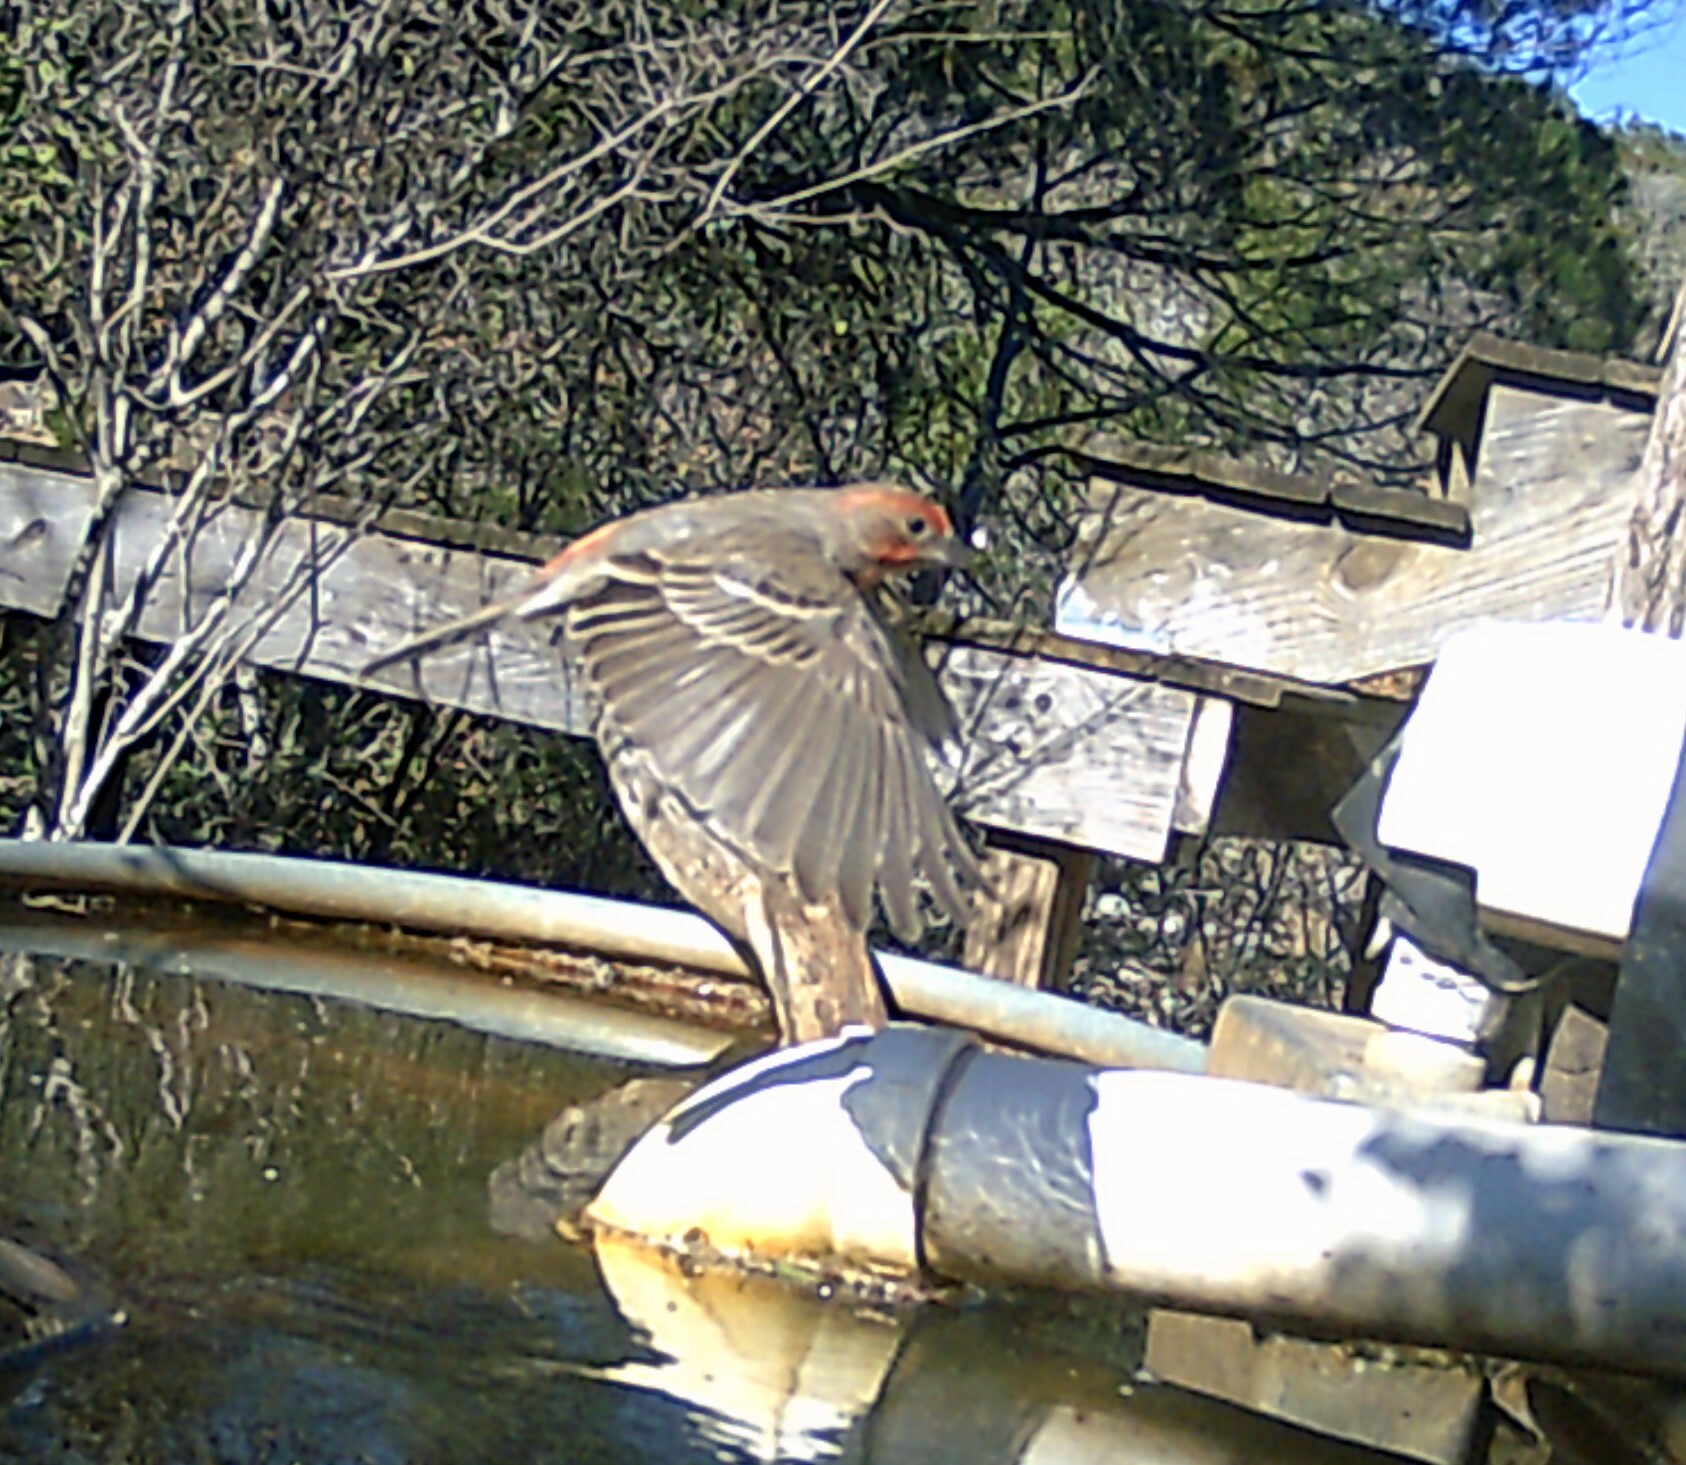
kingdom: Animalia
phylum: Chordata
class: Aves
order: Passeriformes
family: Fringillidae
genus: Haemorhous
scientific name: Haemorhous mexicanus
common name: House finch
